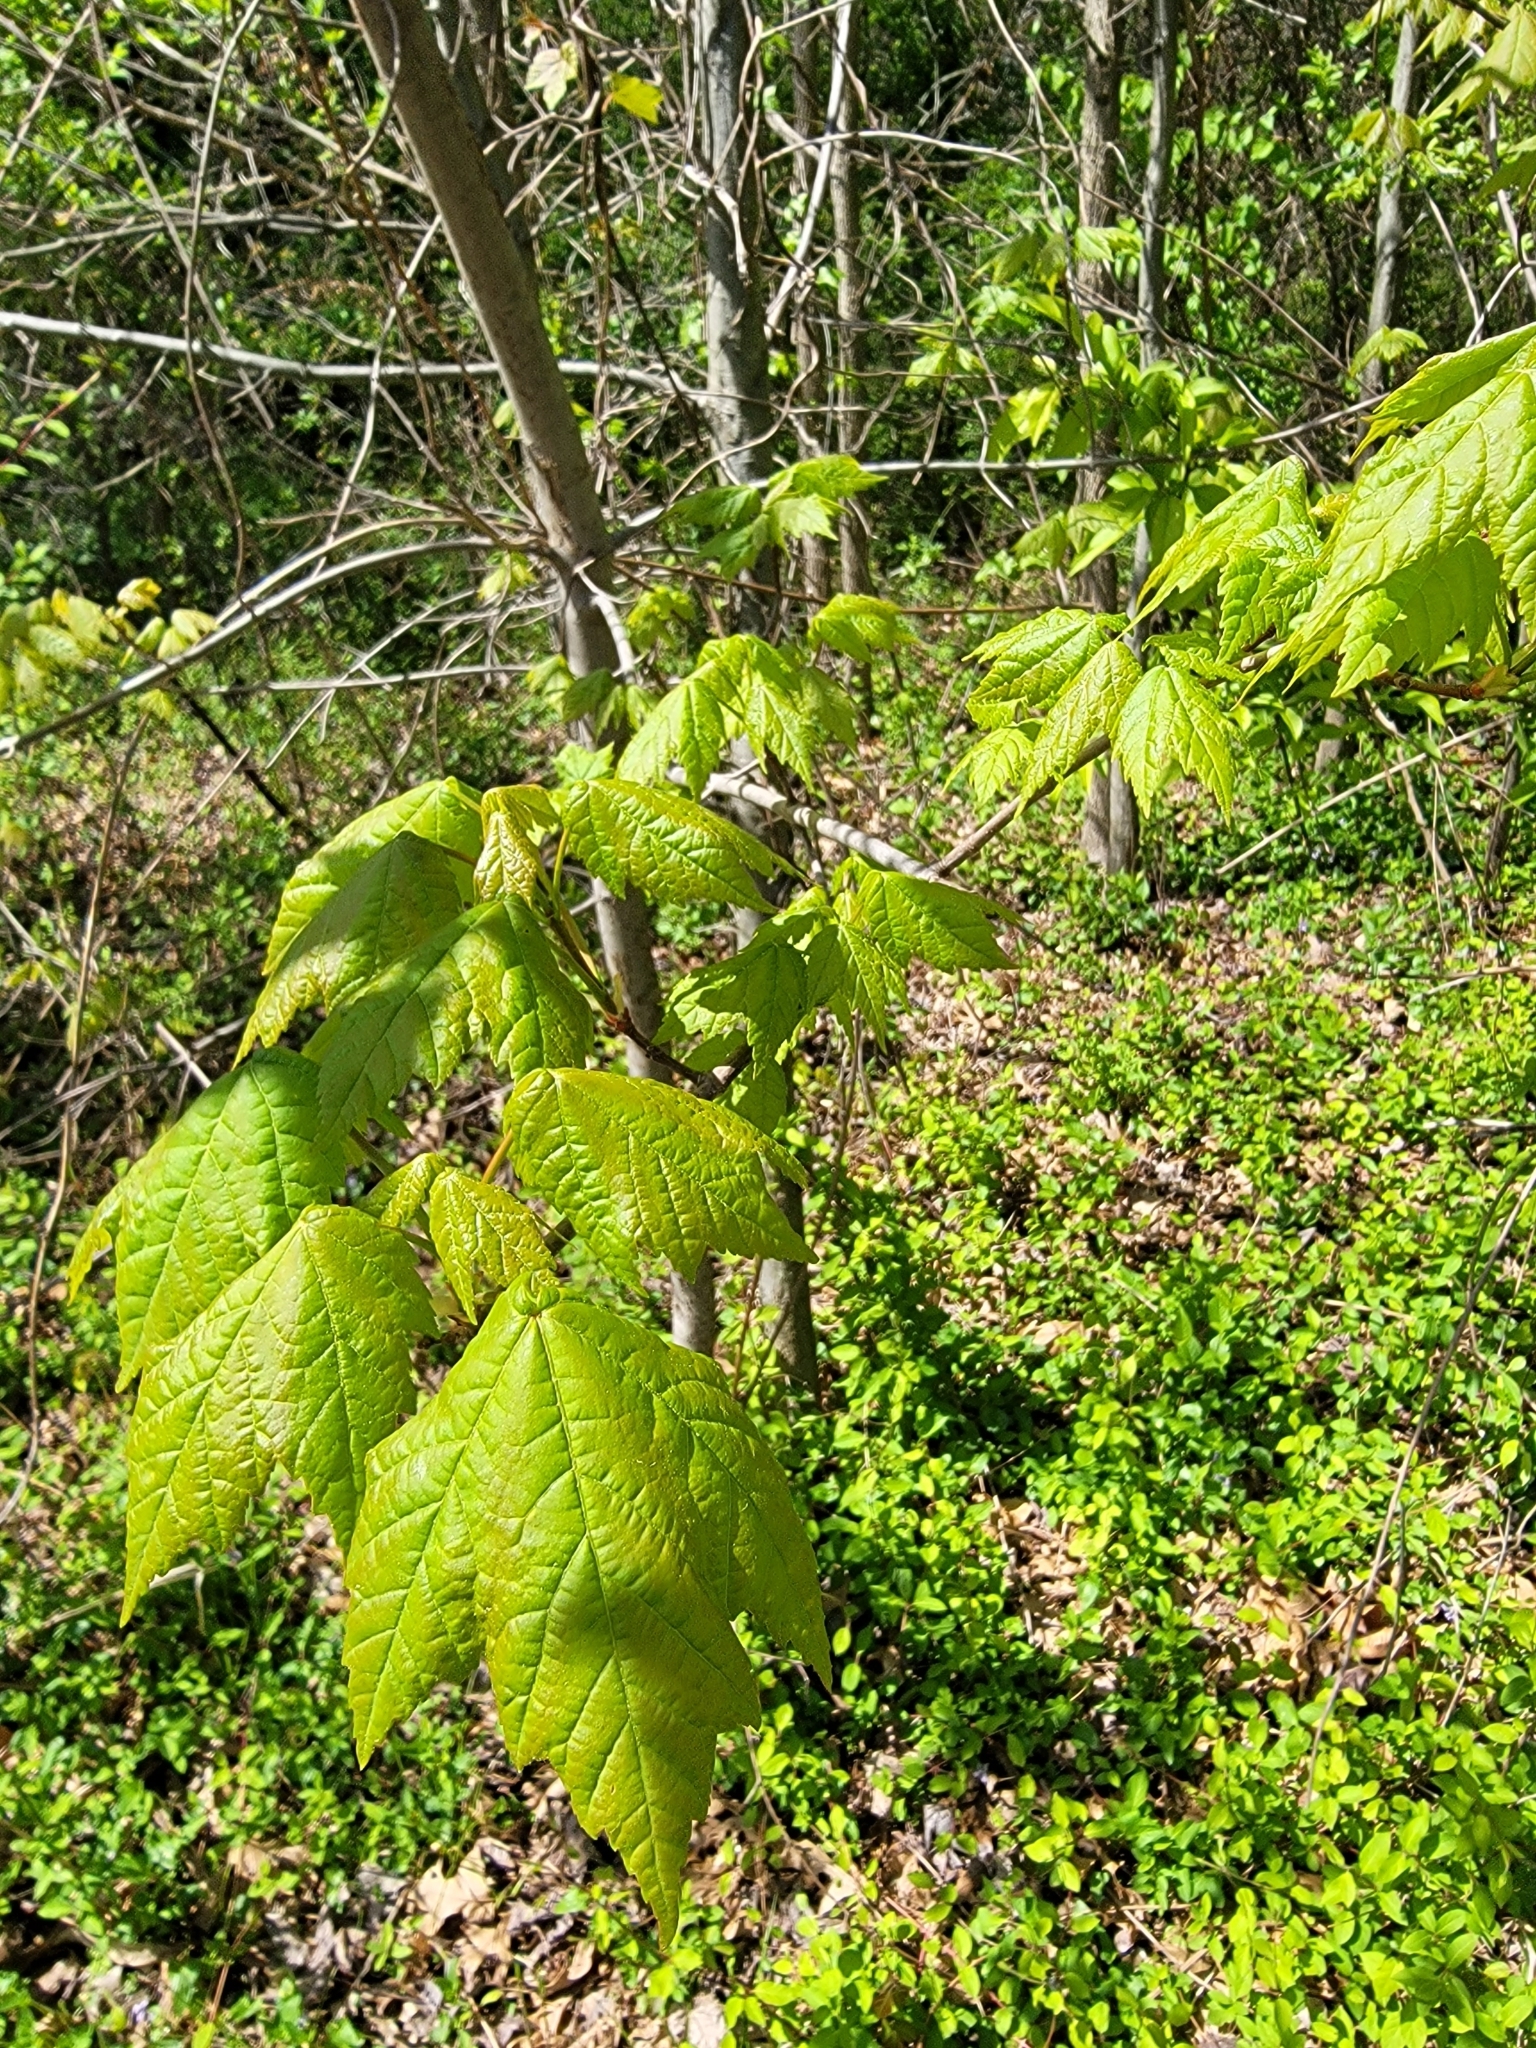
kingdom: Plantae
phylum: Tracheophyta
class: Magnoliopsida
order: Sapindales
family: Sapindaceae
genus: Acer
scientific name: Acer rubrum
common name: Red maple
